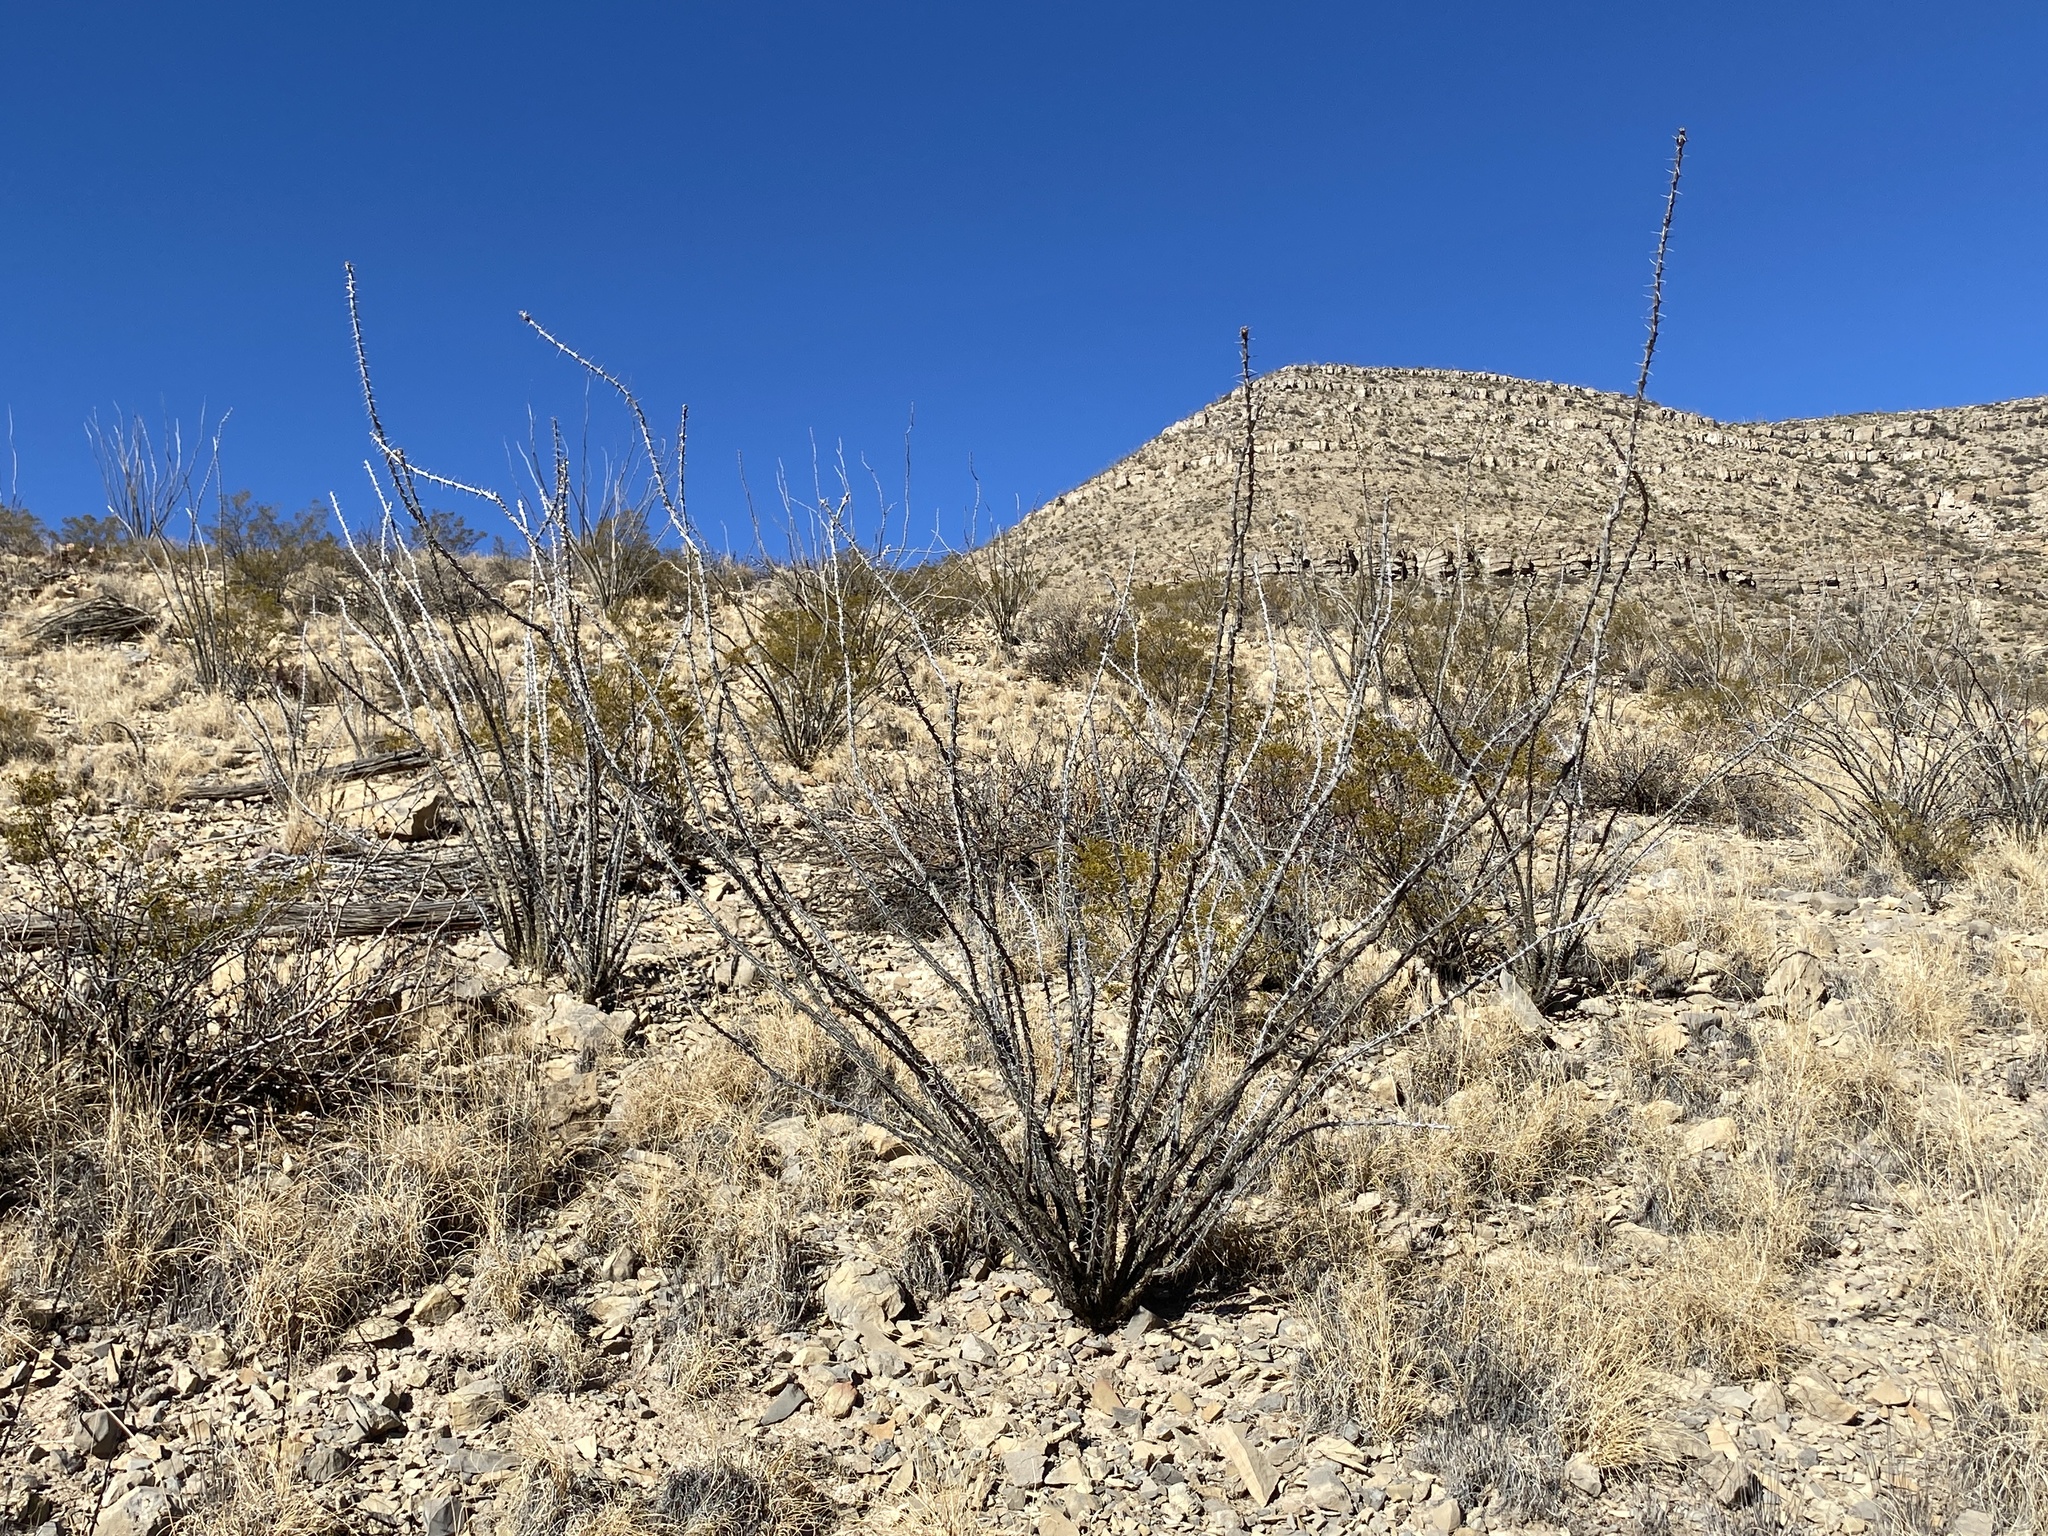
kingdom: Plantae
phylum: Tracheophyta
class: Magnoliopsida
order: Ericales
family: Fouquieriaceae
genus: Fouquieria
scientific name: Fouquieria splendens
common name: Vine-cactus
